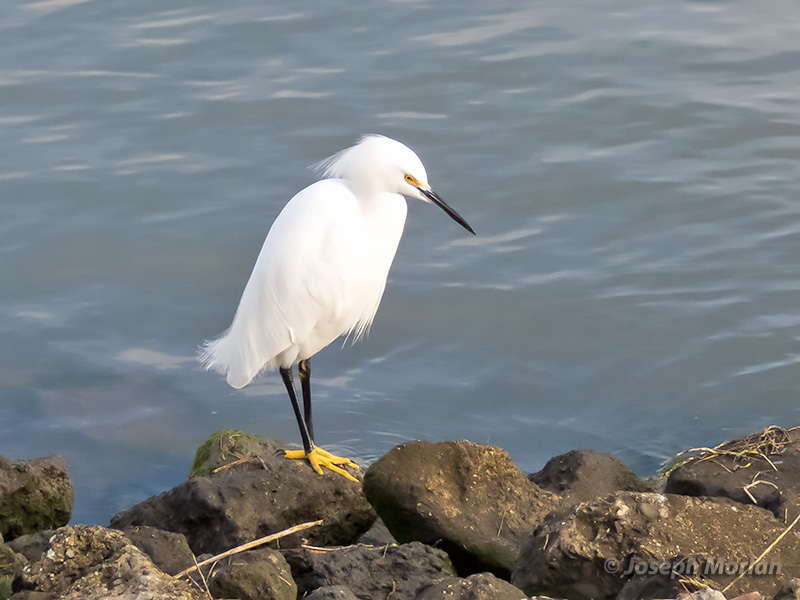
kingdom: Animalia
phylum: Chordata
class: Aves
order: Pelecaniformes
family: Ardeidae
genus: Egretta
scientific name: Egretta thula
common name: Snowy egret
